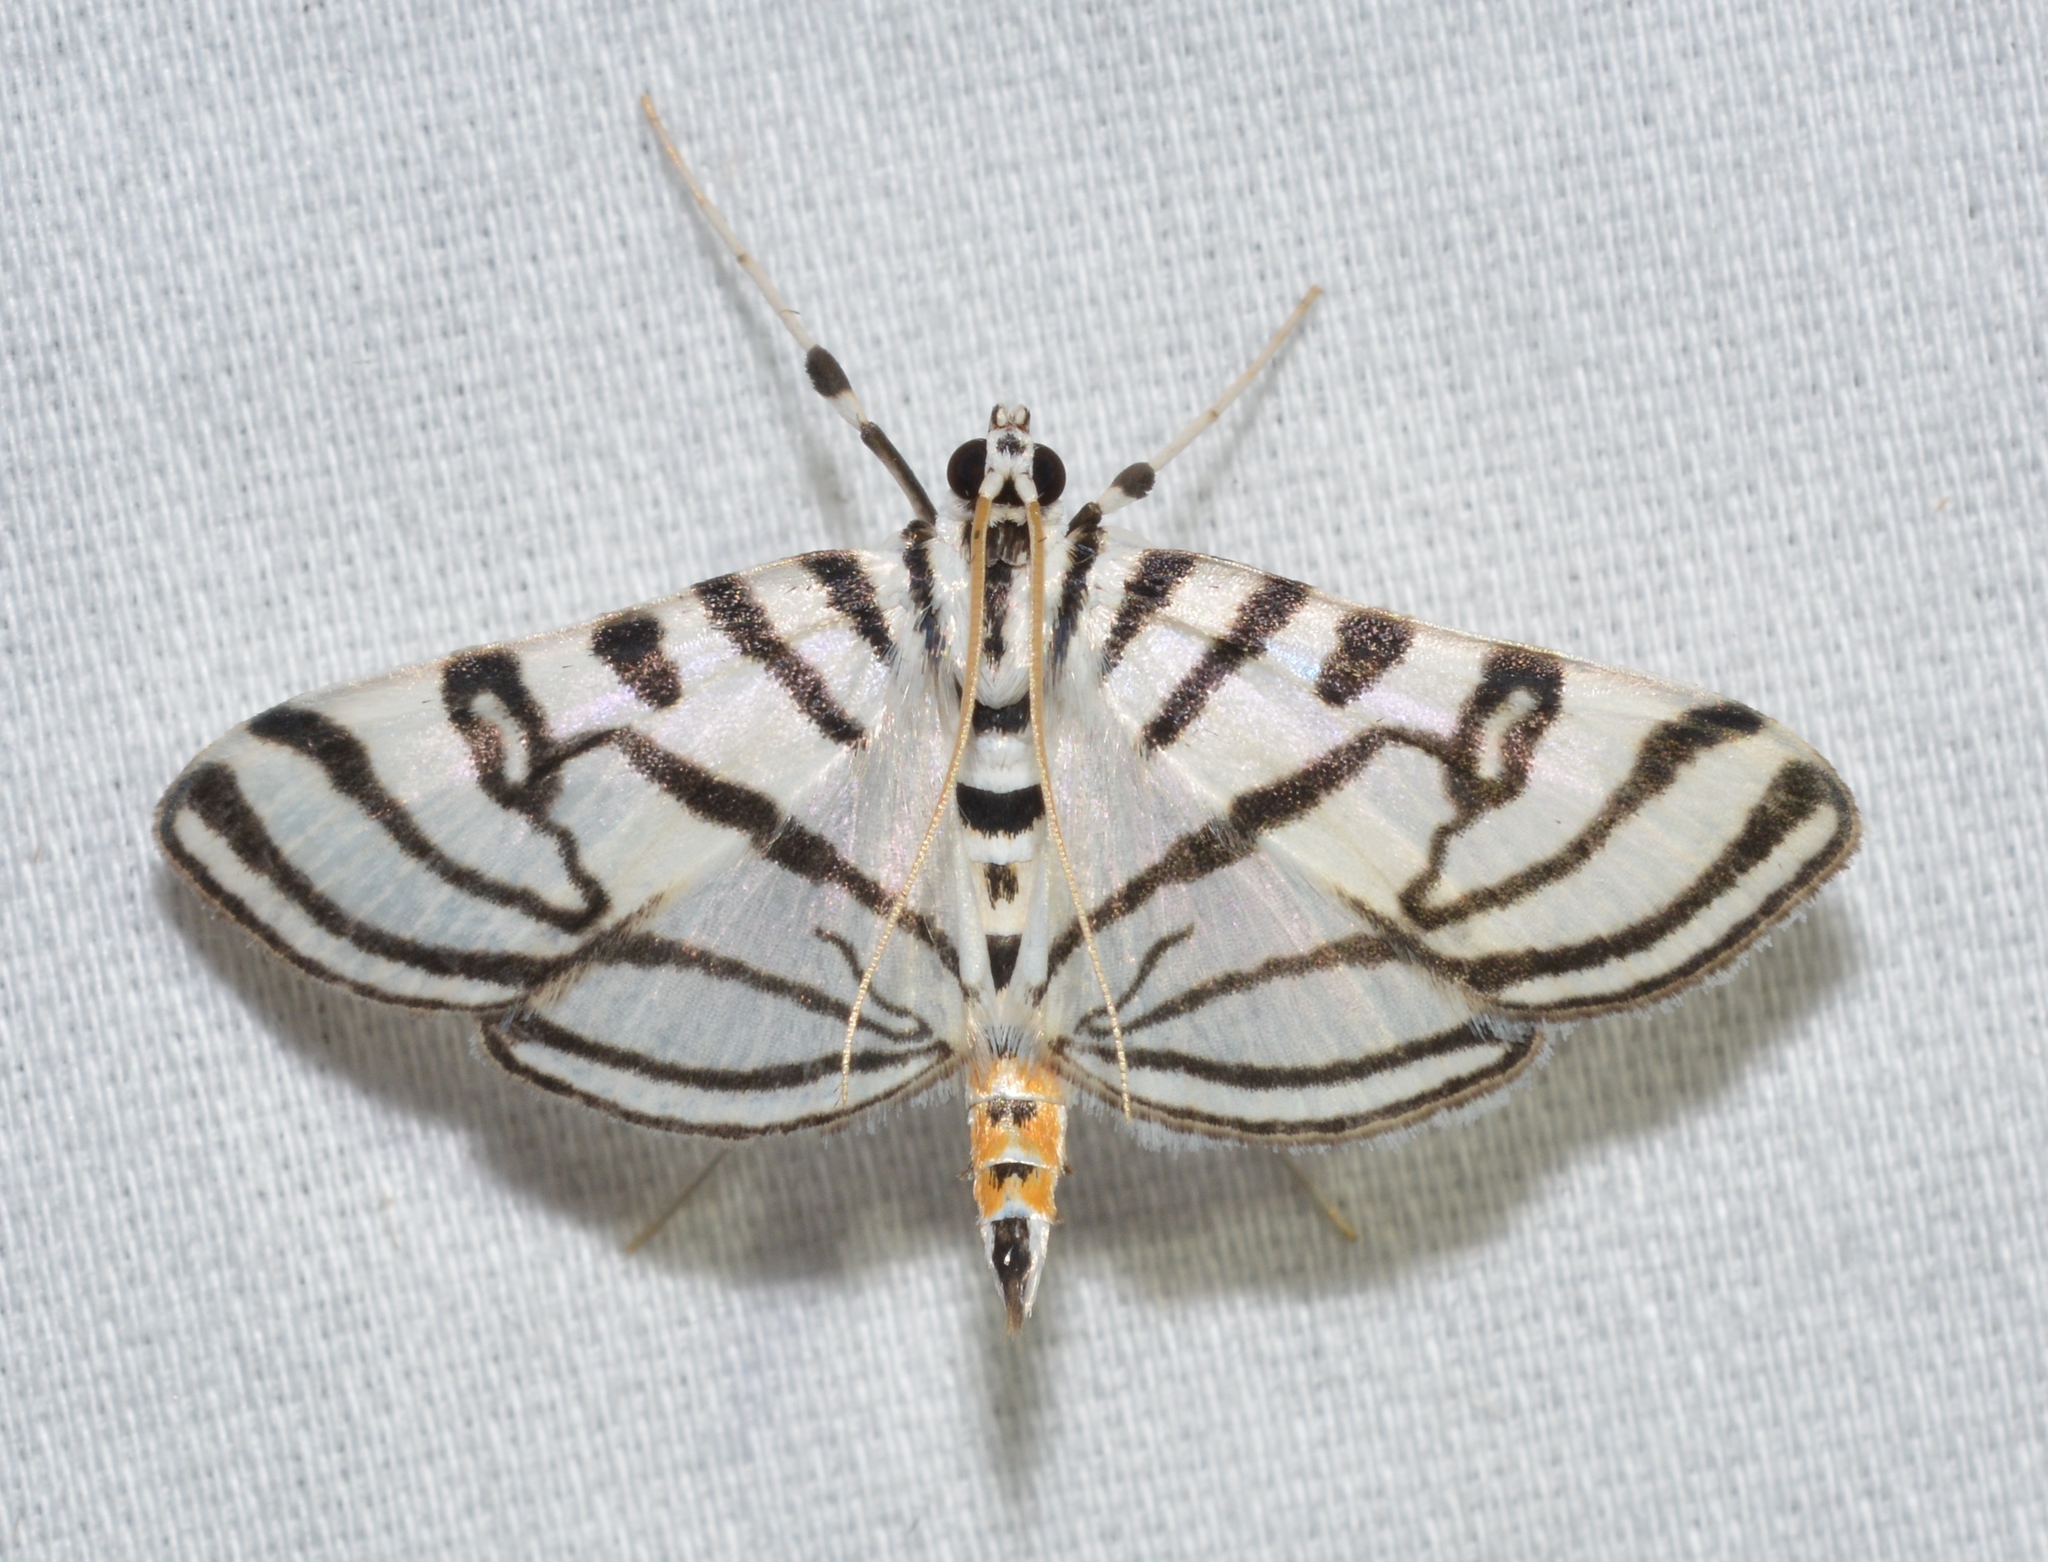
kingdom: Animalia
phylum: Arthropoda
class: Insecta
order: Lepidoptera
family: Crambidae
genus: Conchylodes
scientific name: Conchylodes ovulalis
